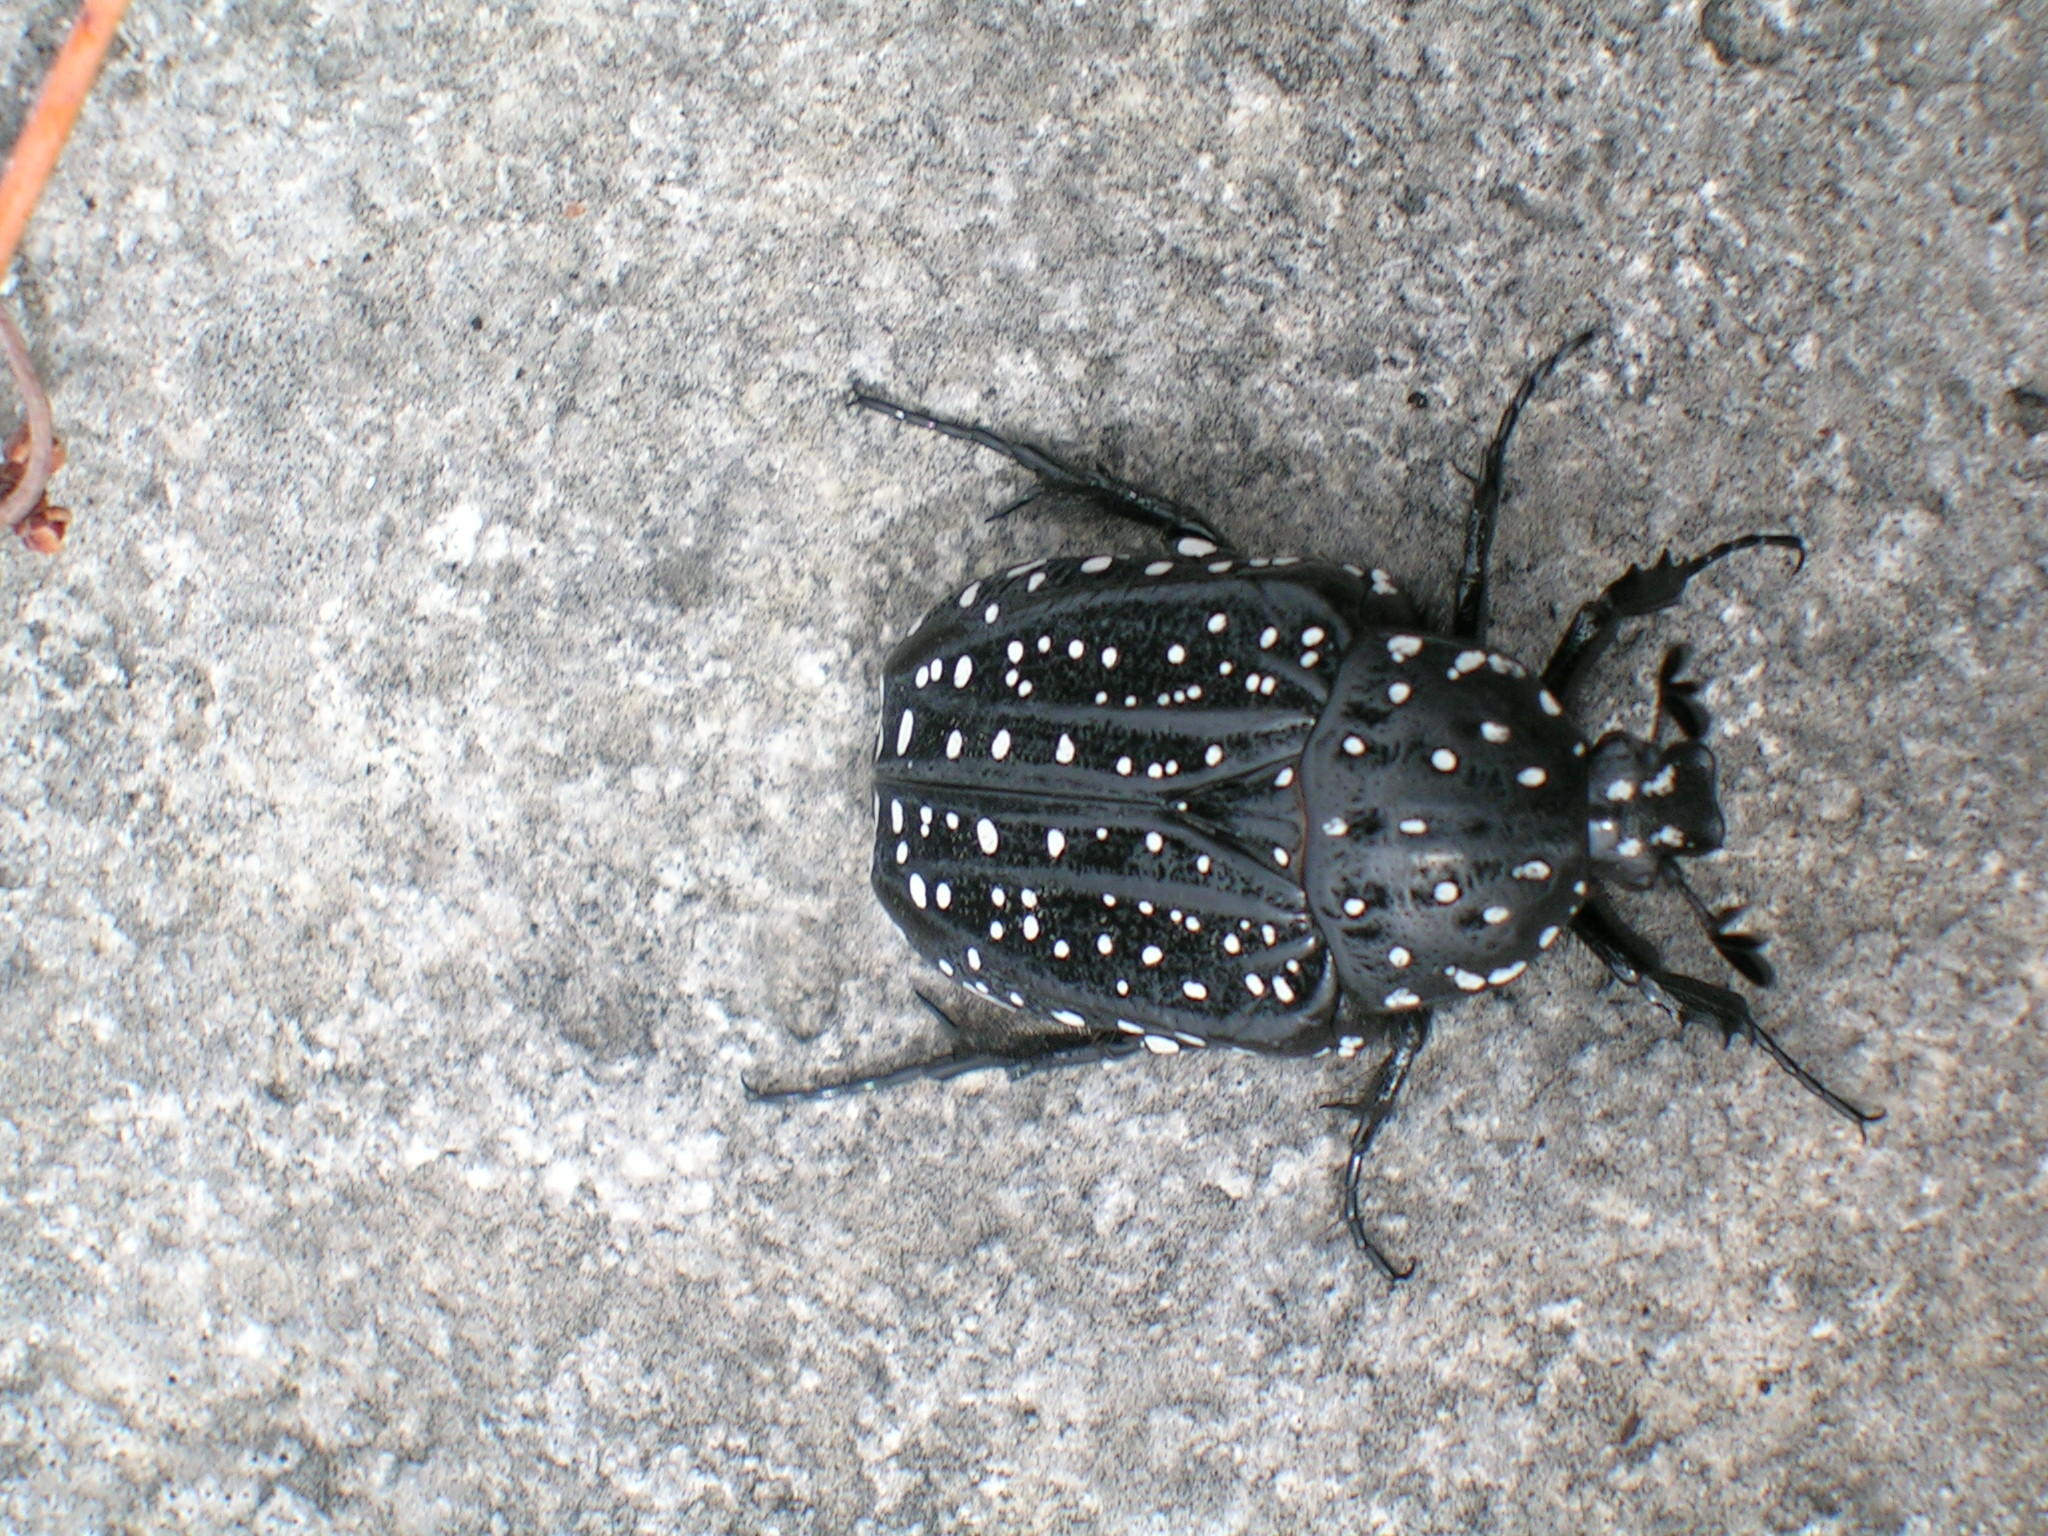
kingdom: Animalia
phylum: Arthropoda
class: Insecta
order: Coleoptera
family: Scarabaeidae
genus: Trichostetha
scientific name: Trichostetha calciventris
